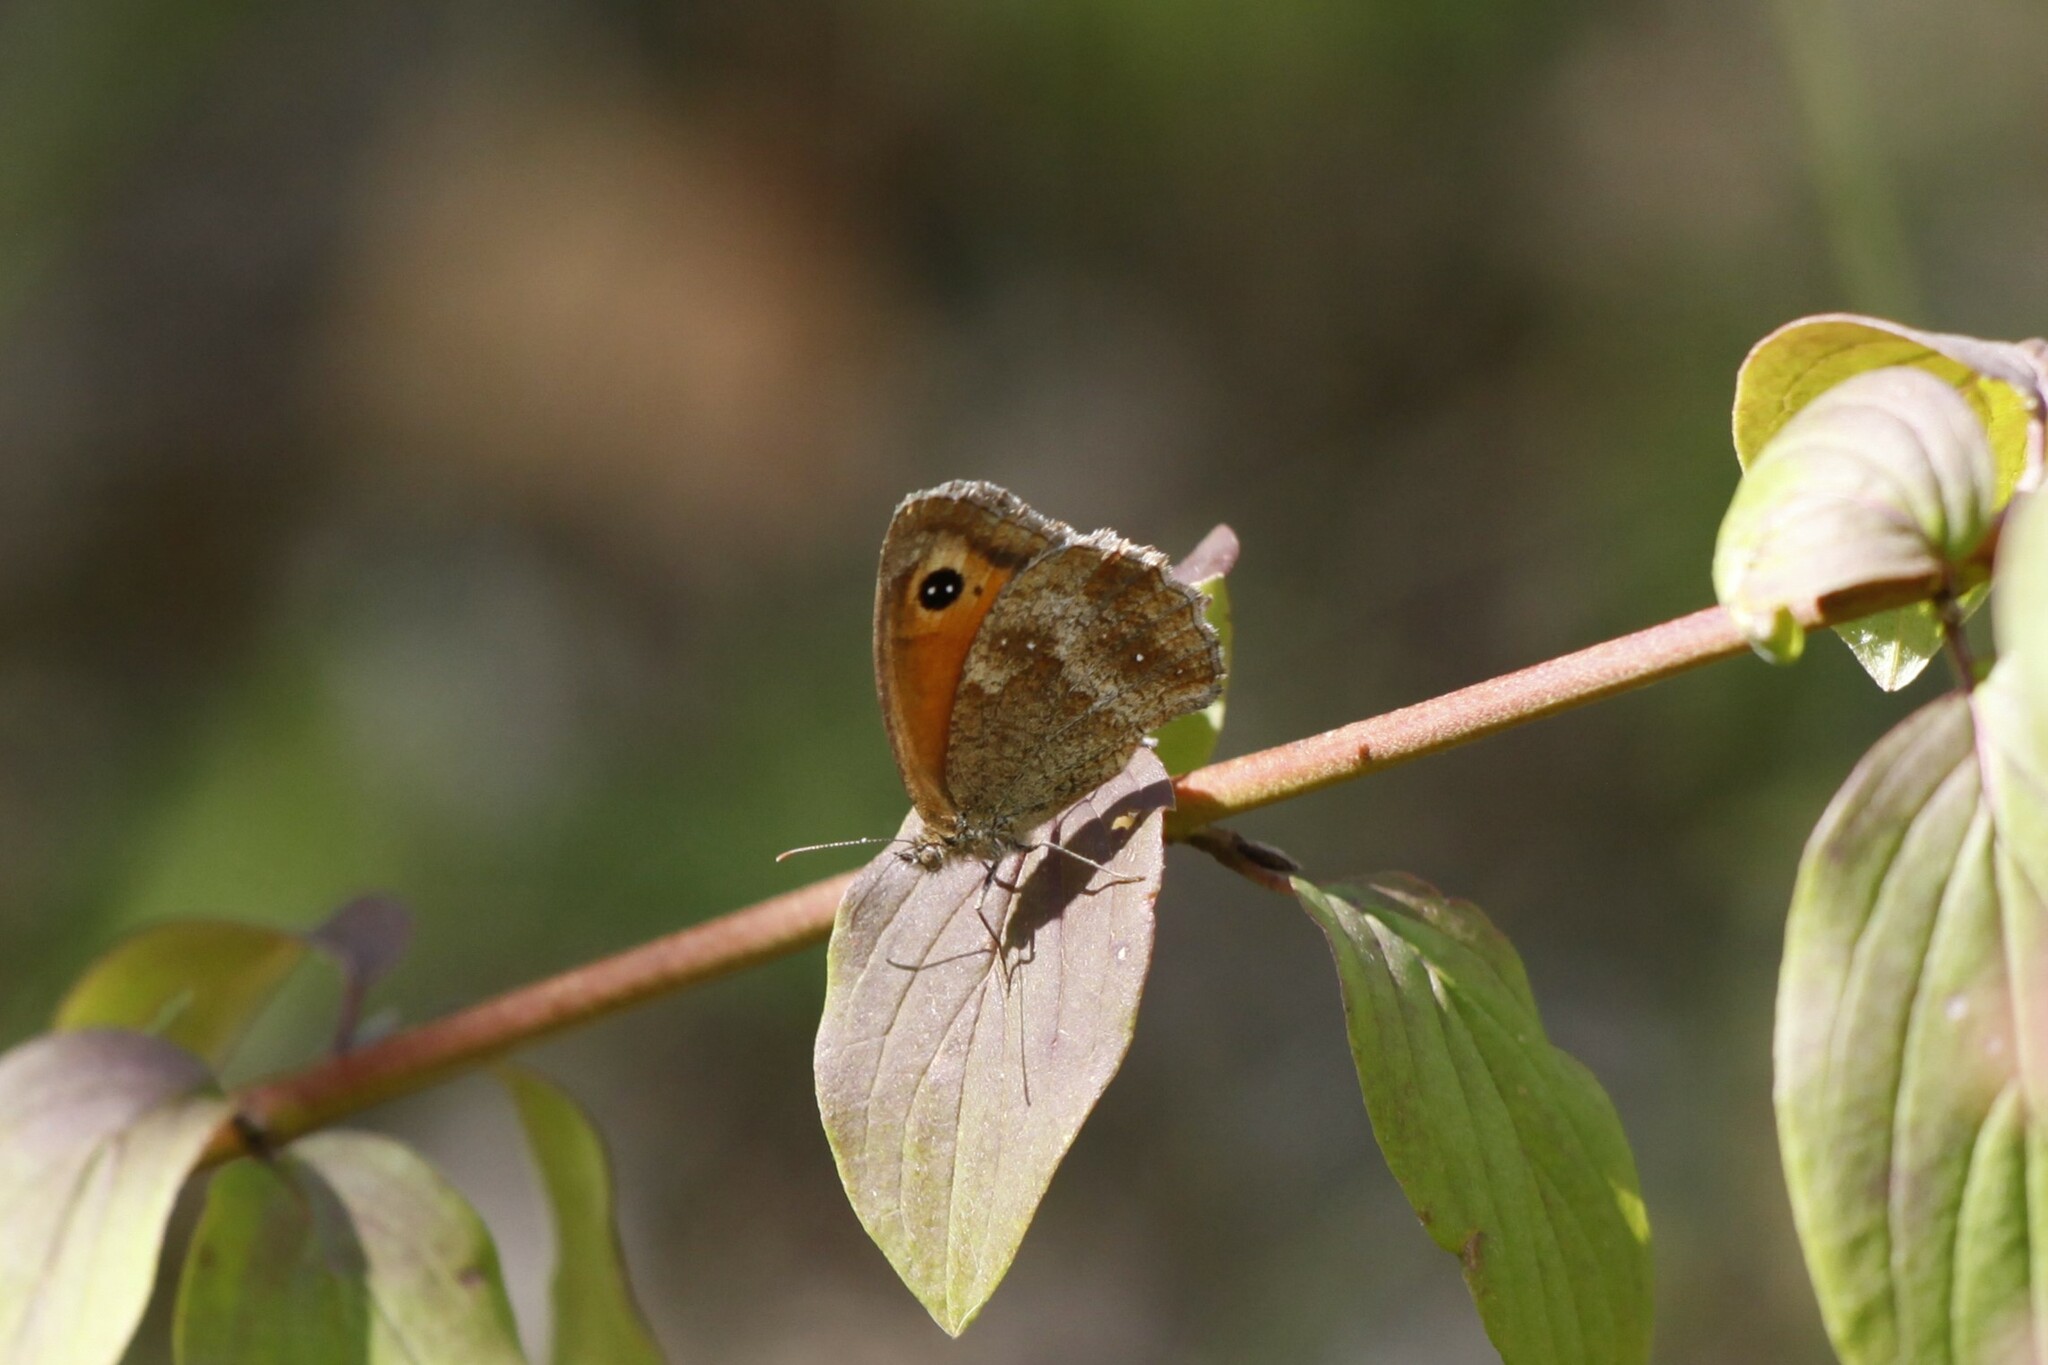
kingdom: Animalia
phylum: Arthropoda
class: Insecta
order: Lepidoptera
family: Nymphalidae
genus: Pyronia
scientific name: Pyronia tithonus
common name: Gatekeeper
